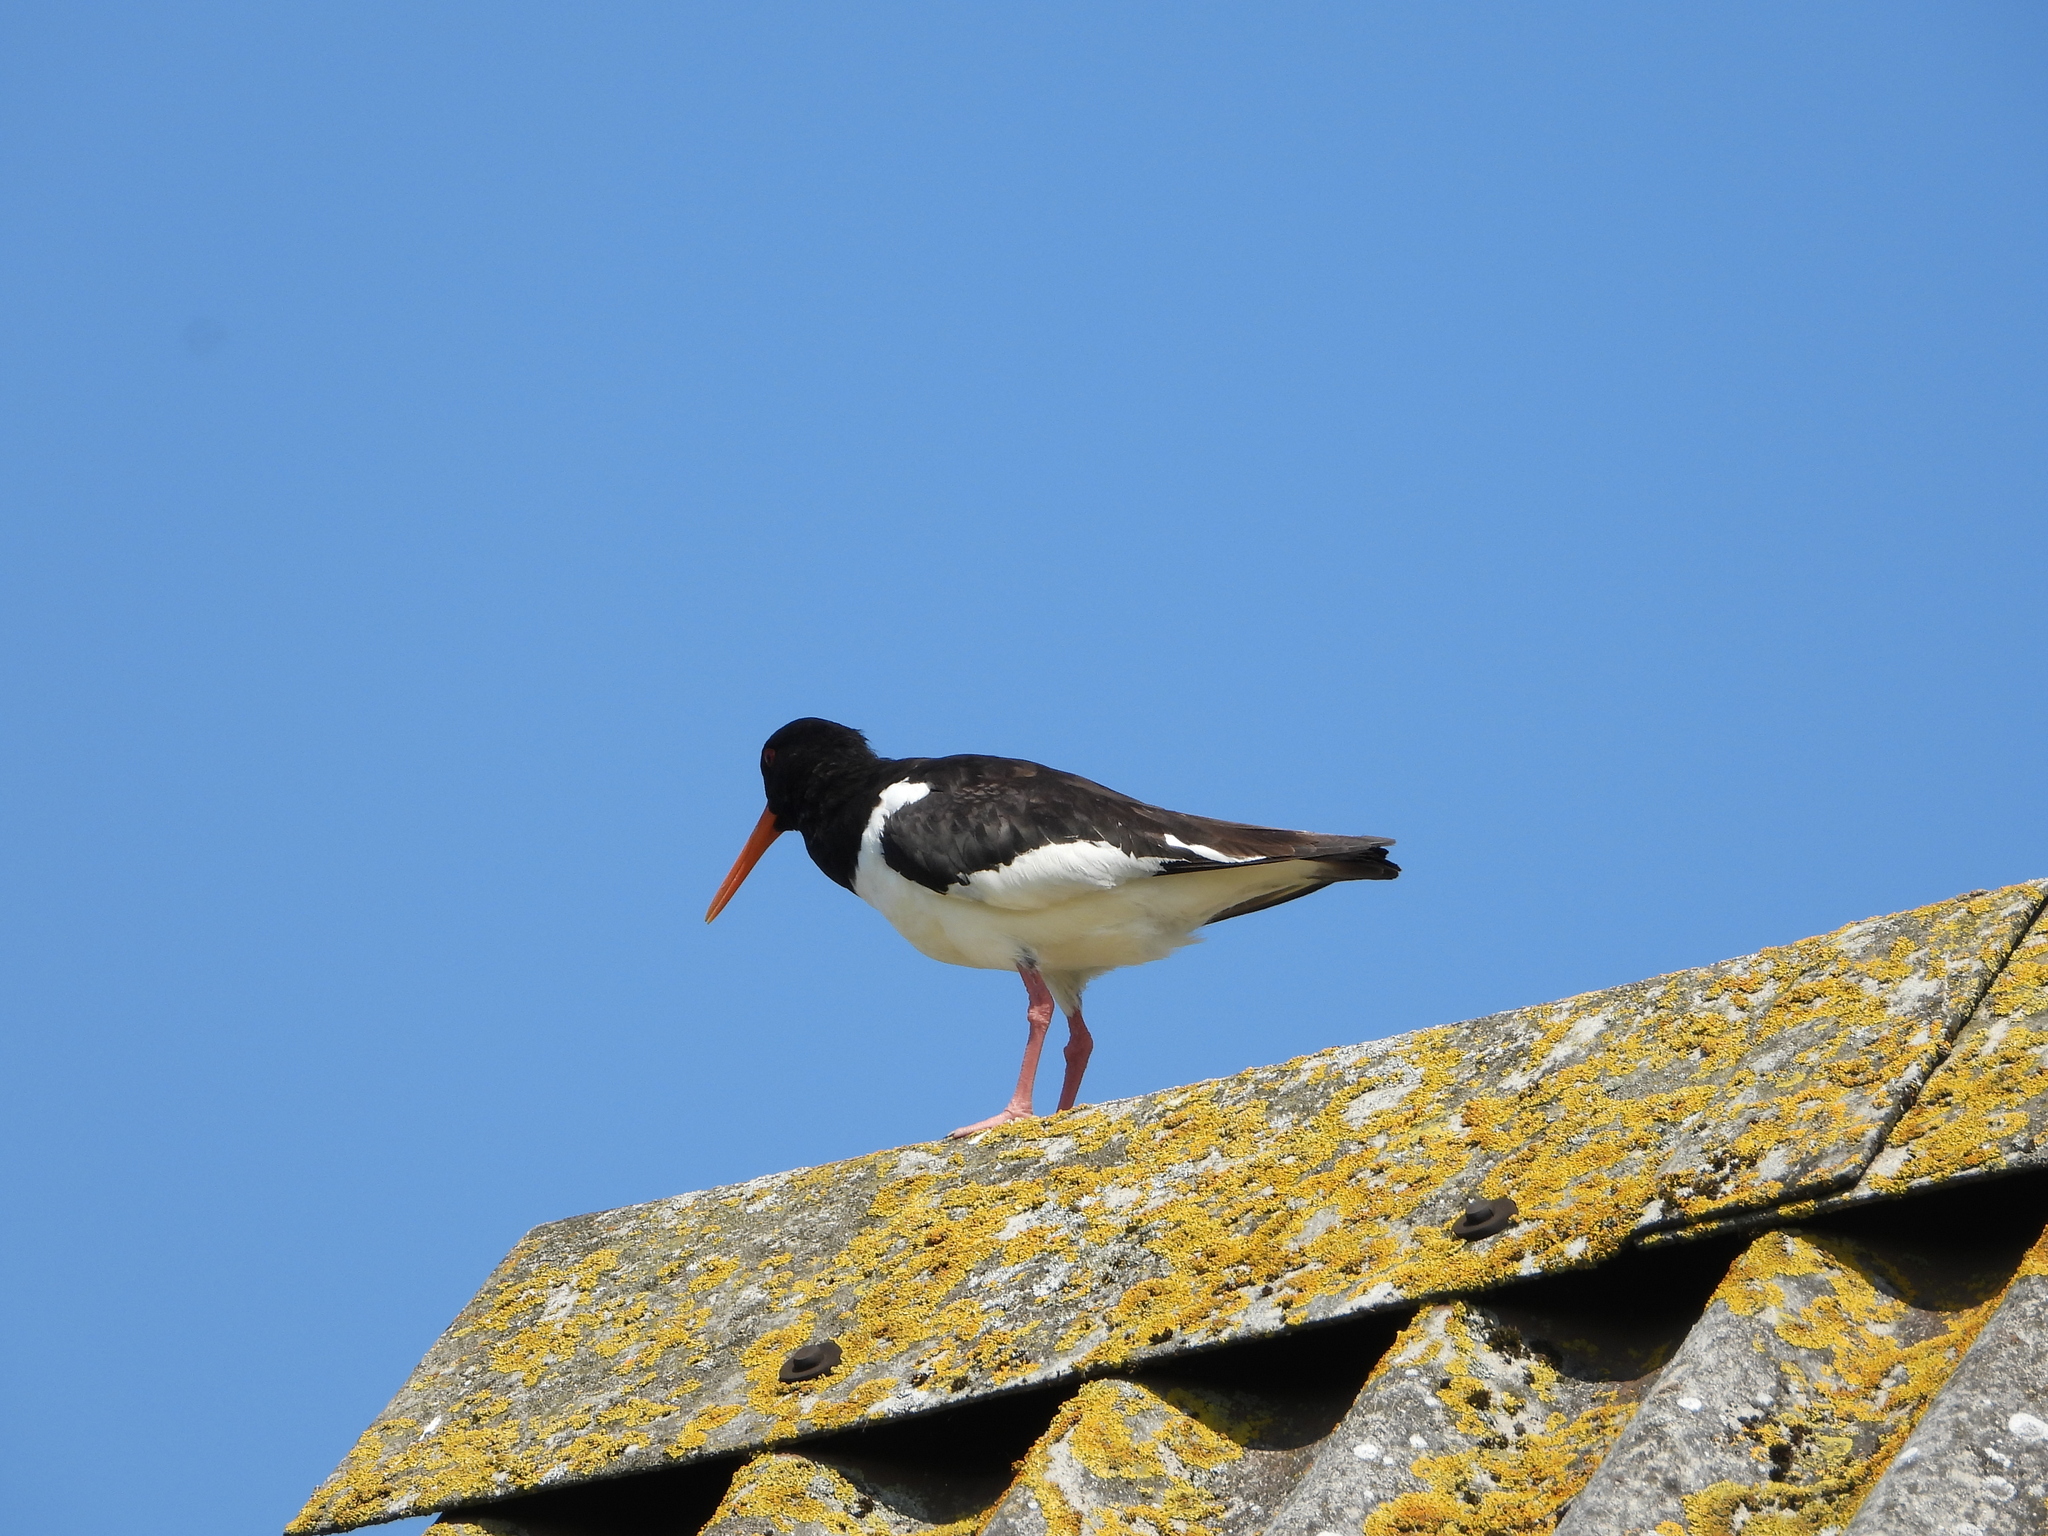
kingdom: Animalia
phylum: Chordata
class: Aves
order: Charadriiformes
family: Haematopodidae
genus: Haematopus
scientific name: Haematopus ostralegus
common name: Eurasian oystercatcher
